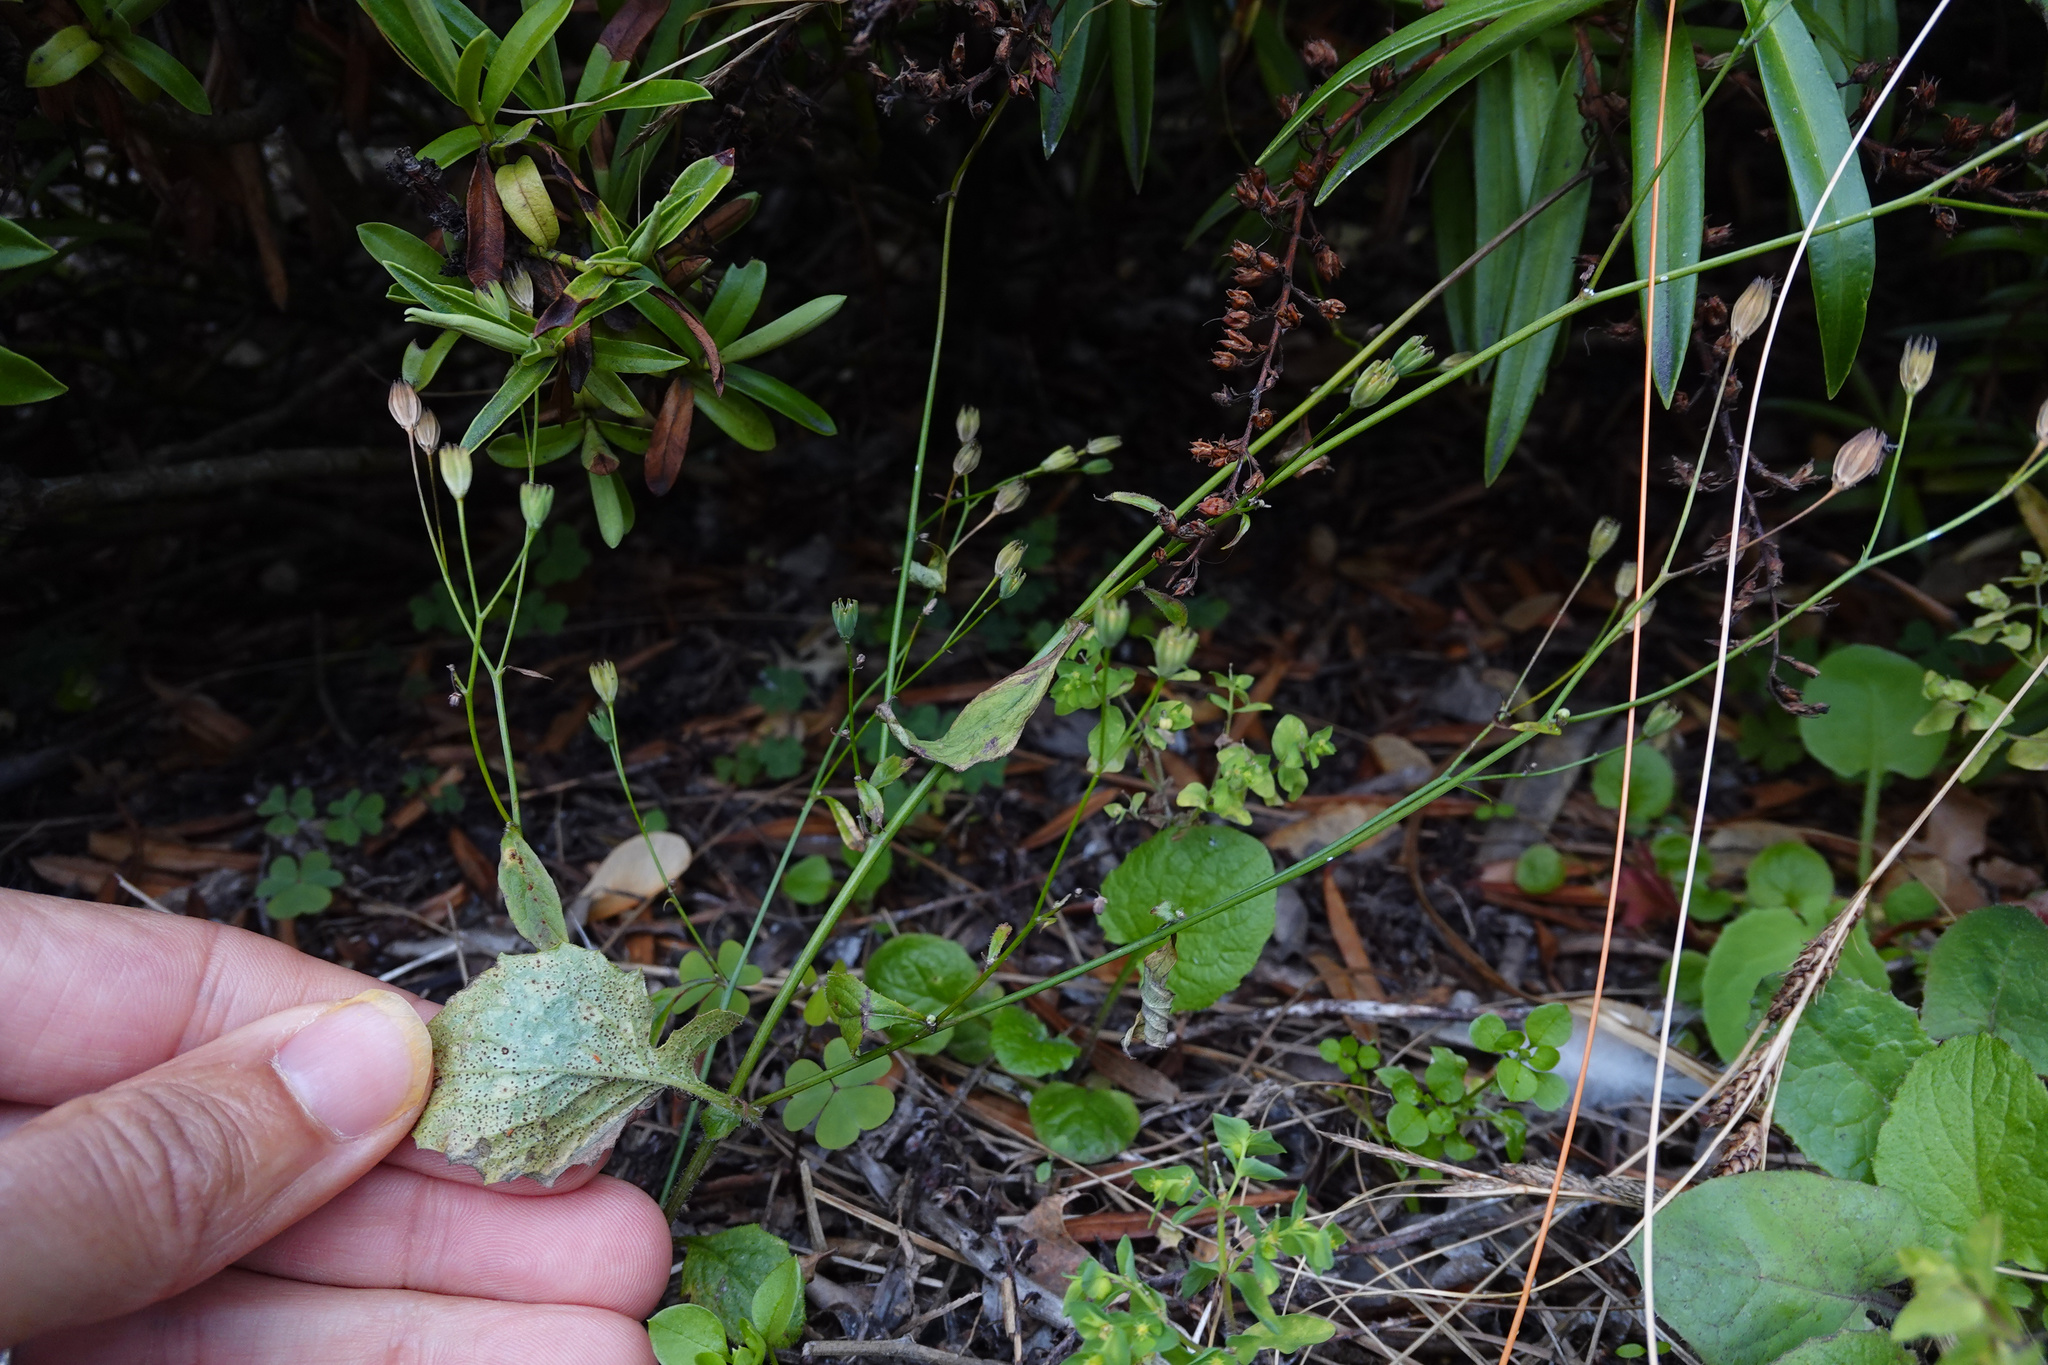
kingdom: Plantae
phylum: Tracheophyta
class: Magnoliopsida
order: Asterales
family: Asteraceae
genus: Lapsana
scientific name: Lapsana communis
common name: Nipplewort
